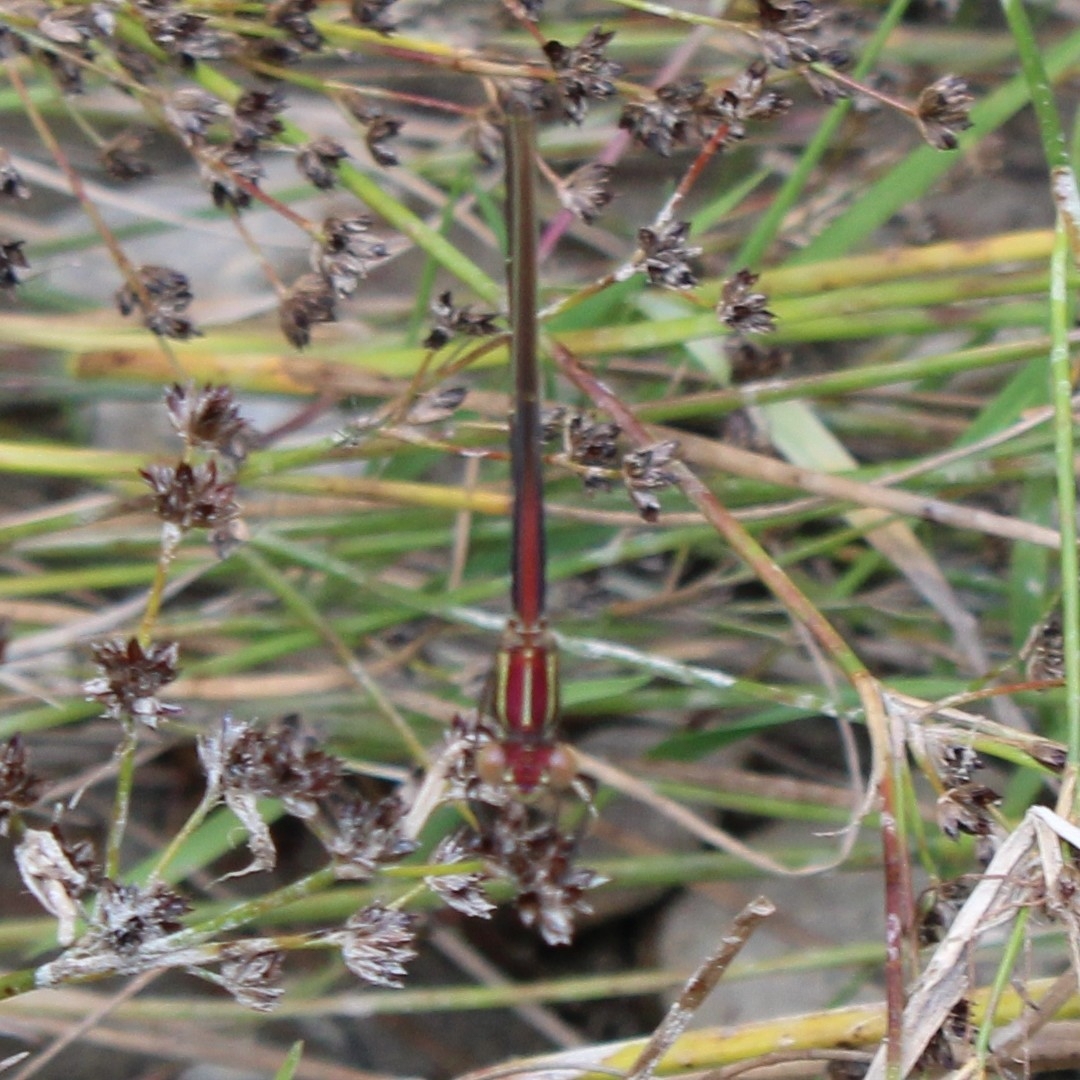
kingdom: Animalia
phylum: Arthropoda
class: Insecta
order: Odonata
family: Calopterygidae
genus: Hetaerina
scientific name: Hetaerina americana
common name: American rubyspot
